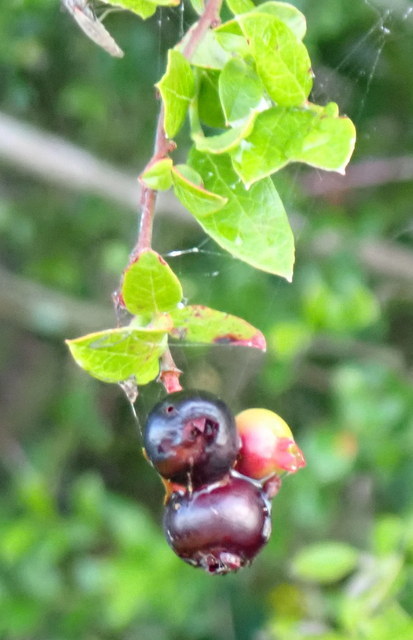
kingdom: Plantae
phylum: Tracheophyta
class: Magnoliopsida
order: Ericales
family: Ericaceae
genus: Vaccinium
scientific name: Vaccinium corymbosum
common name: Blueberry
